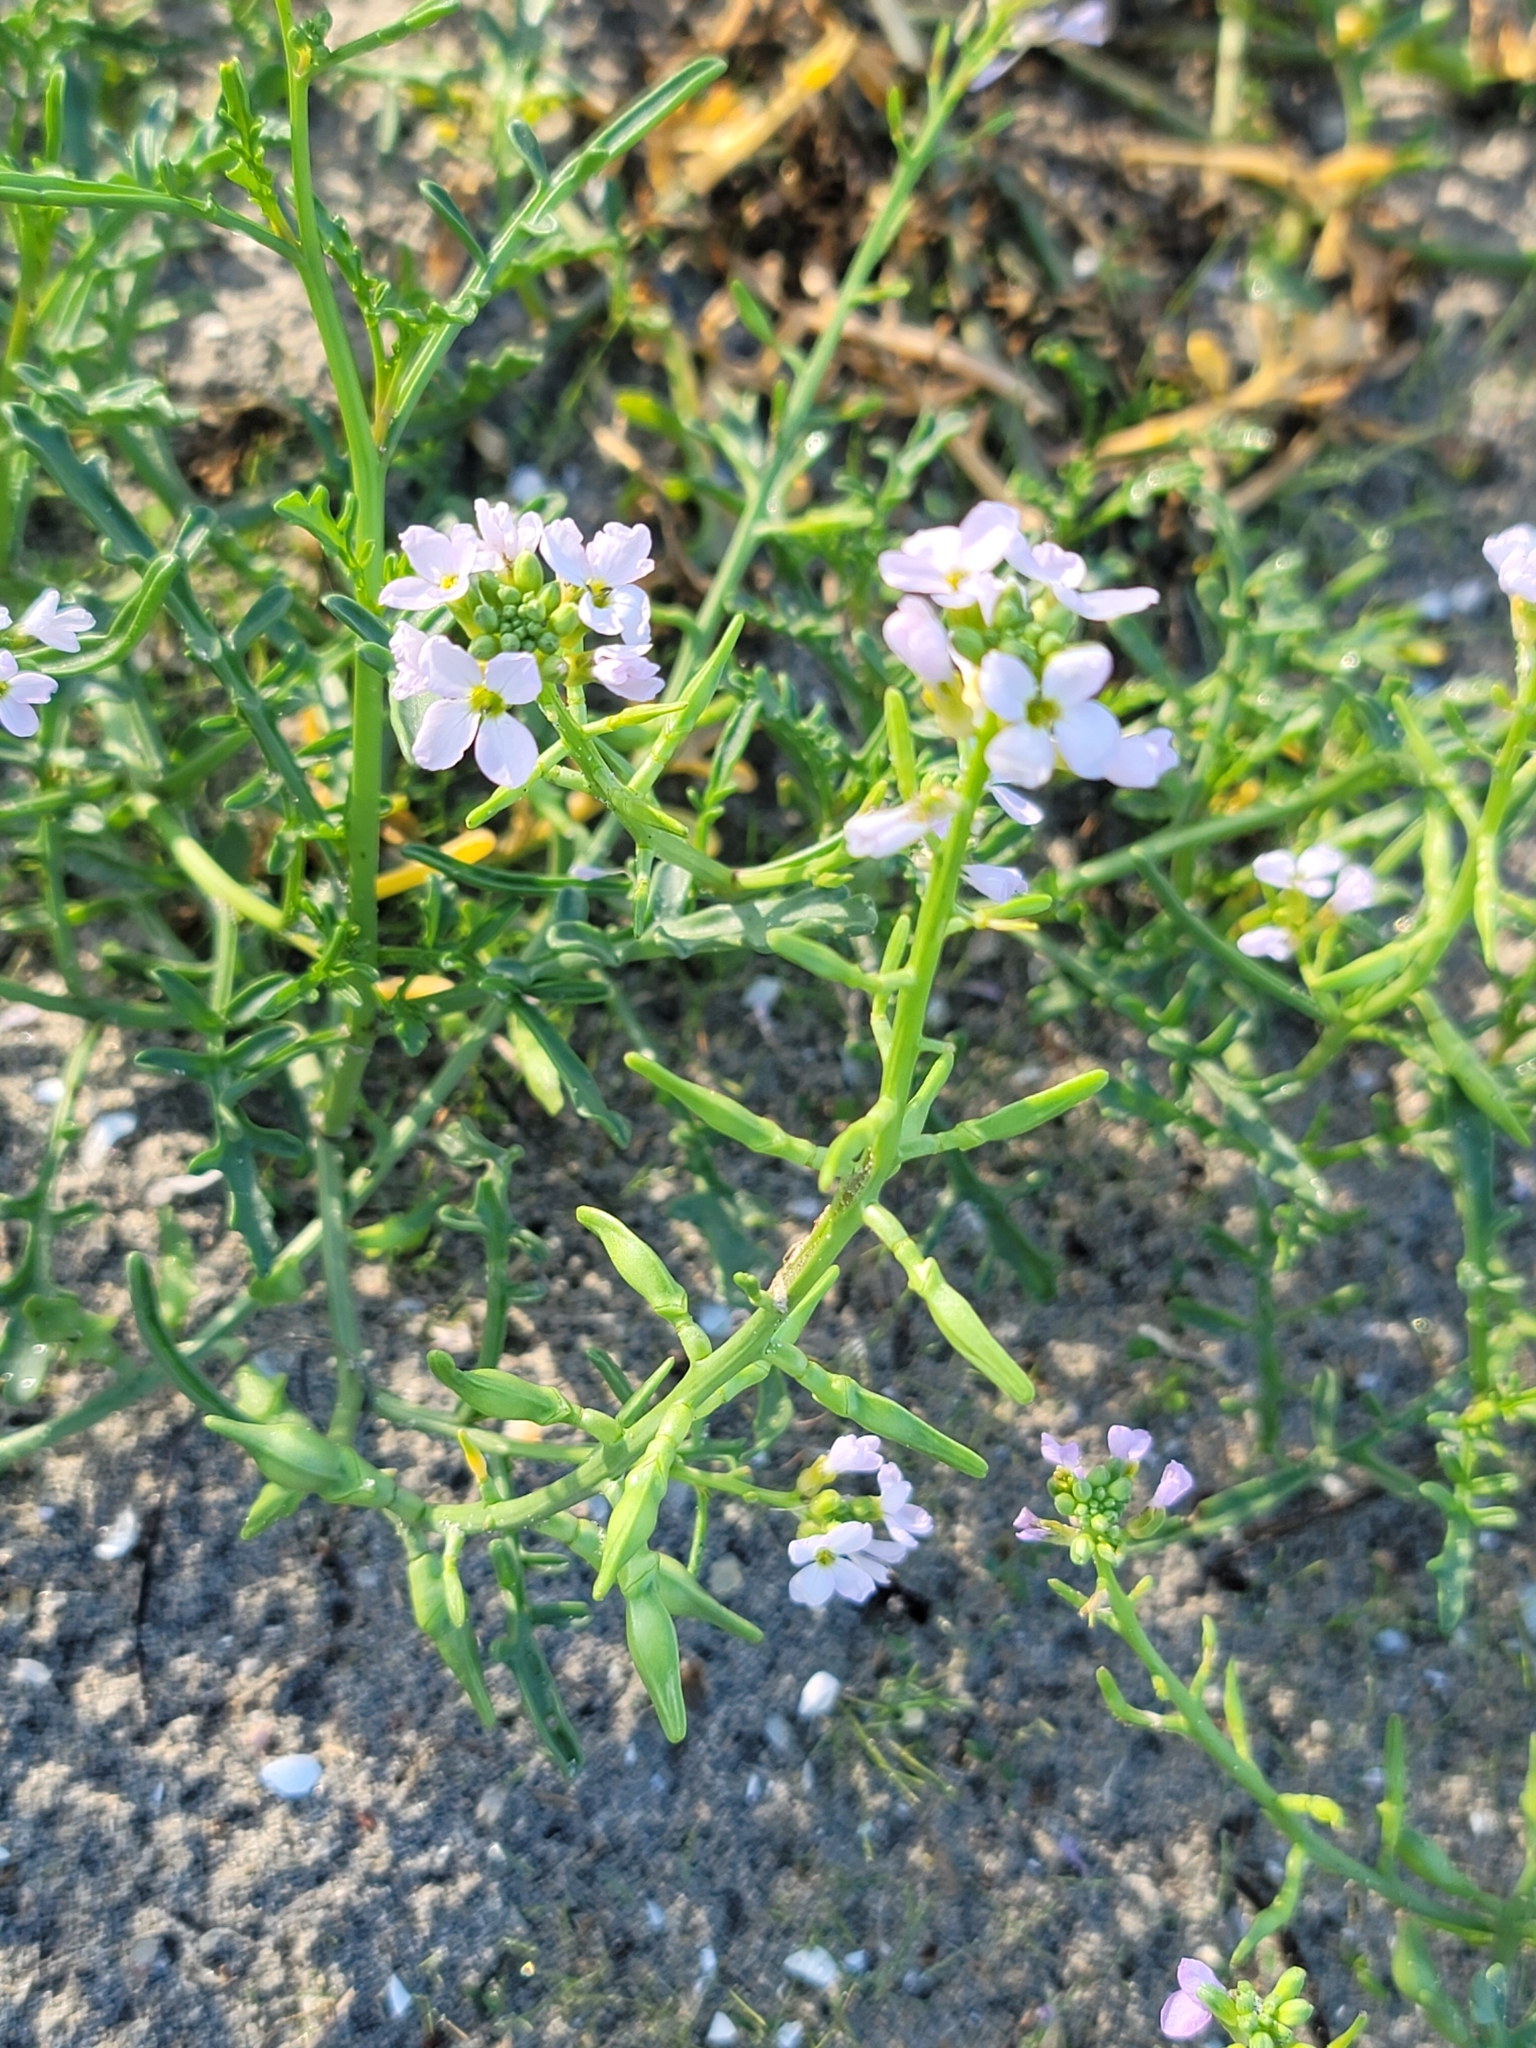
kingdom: Plantae
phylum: Tracheophyta
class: Magnoliopsida
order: Brassicales
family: Brassicaceae
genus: Cakile
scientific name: Cakile maritima
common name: Sea rocket
